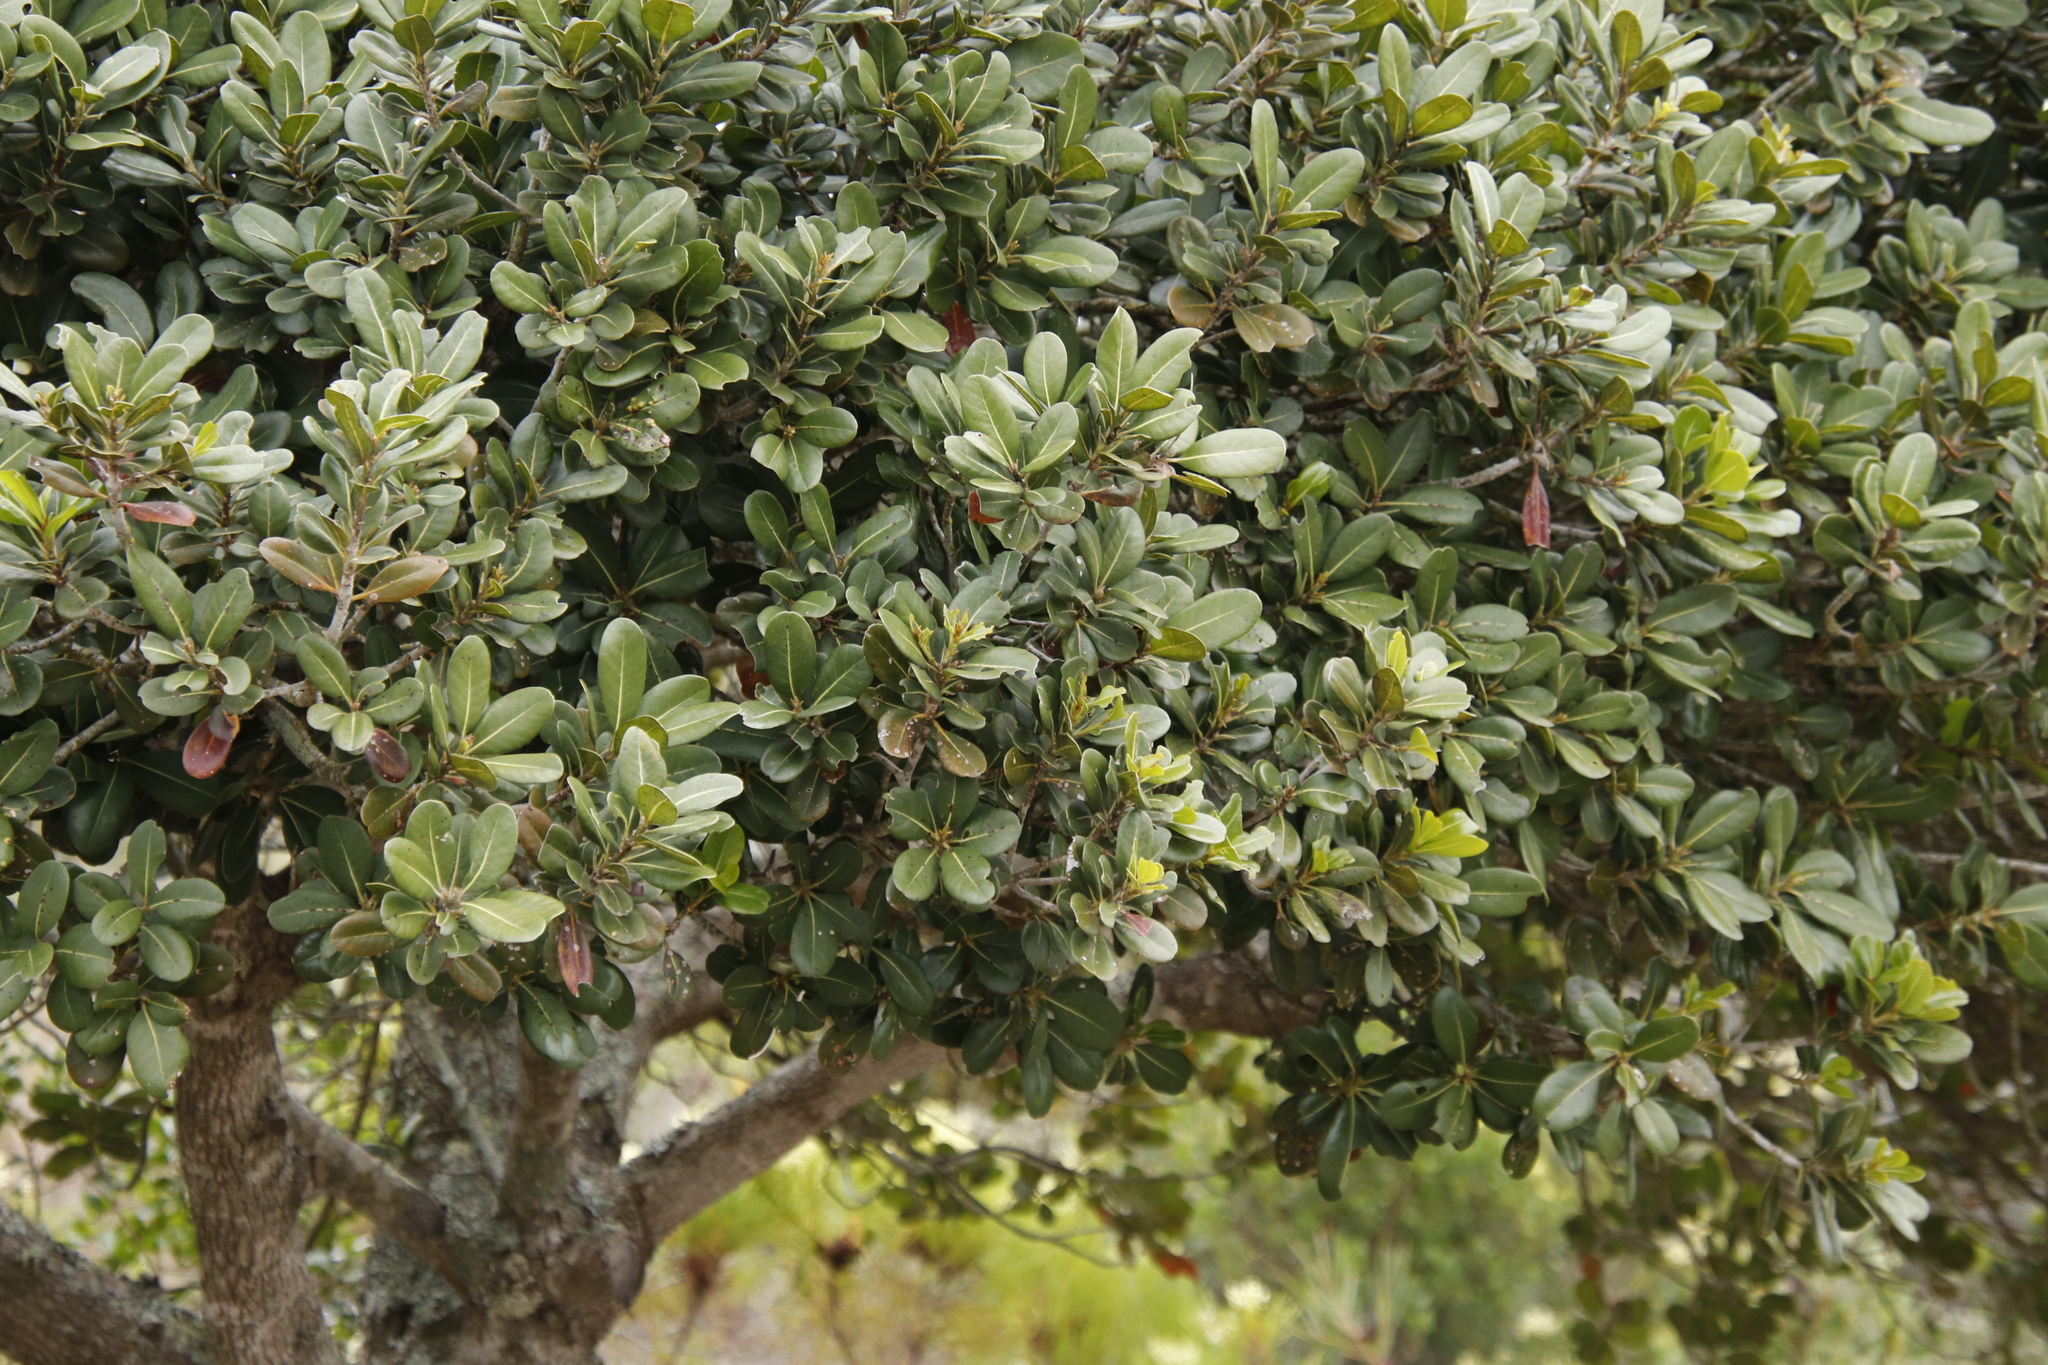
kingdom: Plantae
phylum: Tracheophyta
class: Magnoliopsida
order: Ericales
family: Sapotaceae
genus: Sideroxylon
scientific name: Sideroxylon inerme
